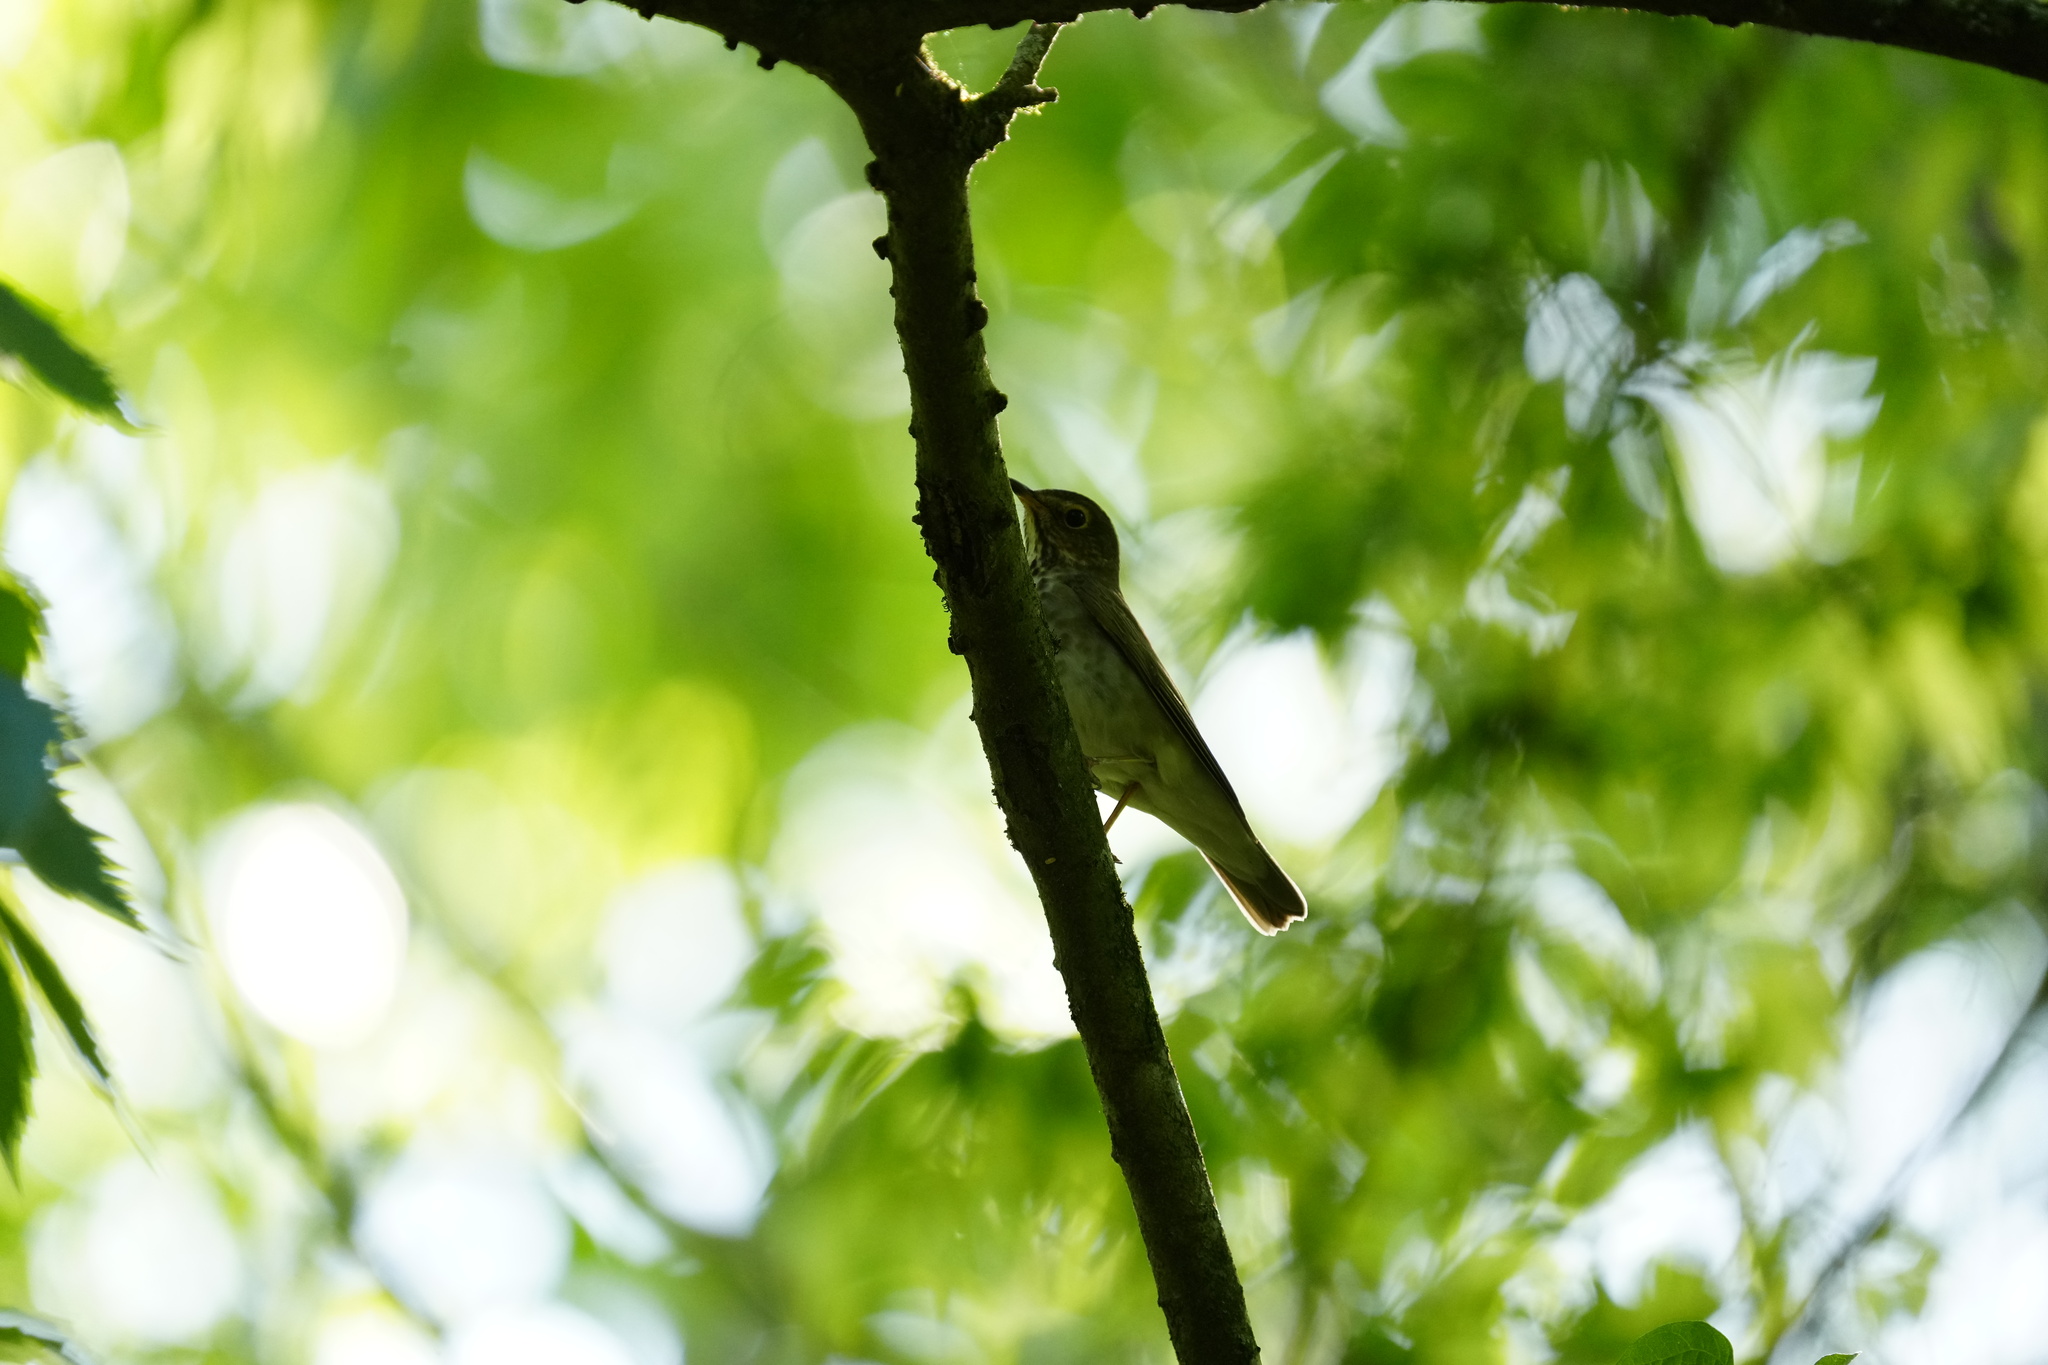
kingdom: Animalia
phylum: Chordata
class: Aves
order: Passeriformes
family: Turdidae
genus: Catharus
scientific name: Catharus ustulatus
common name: Swainson's thrush
